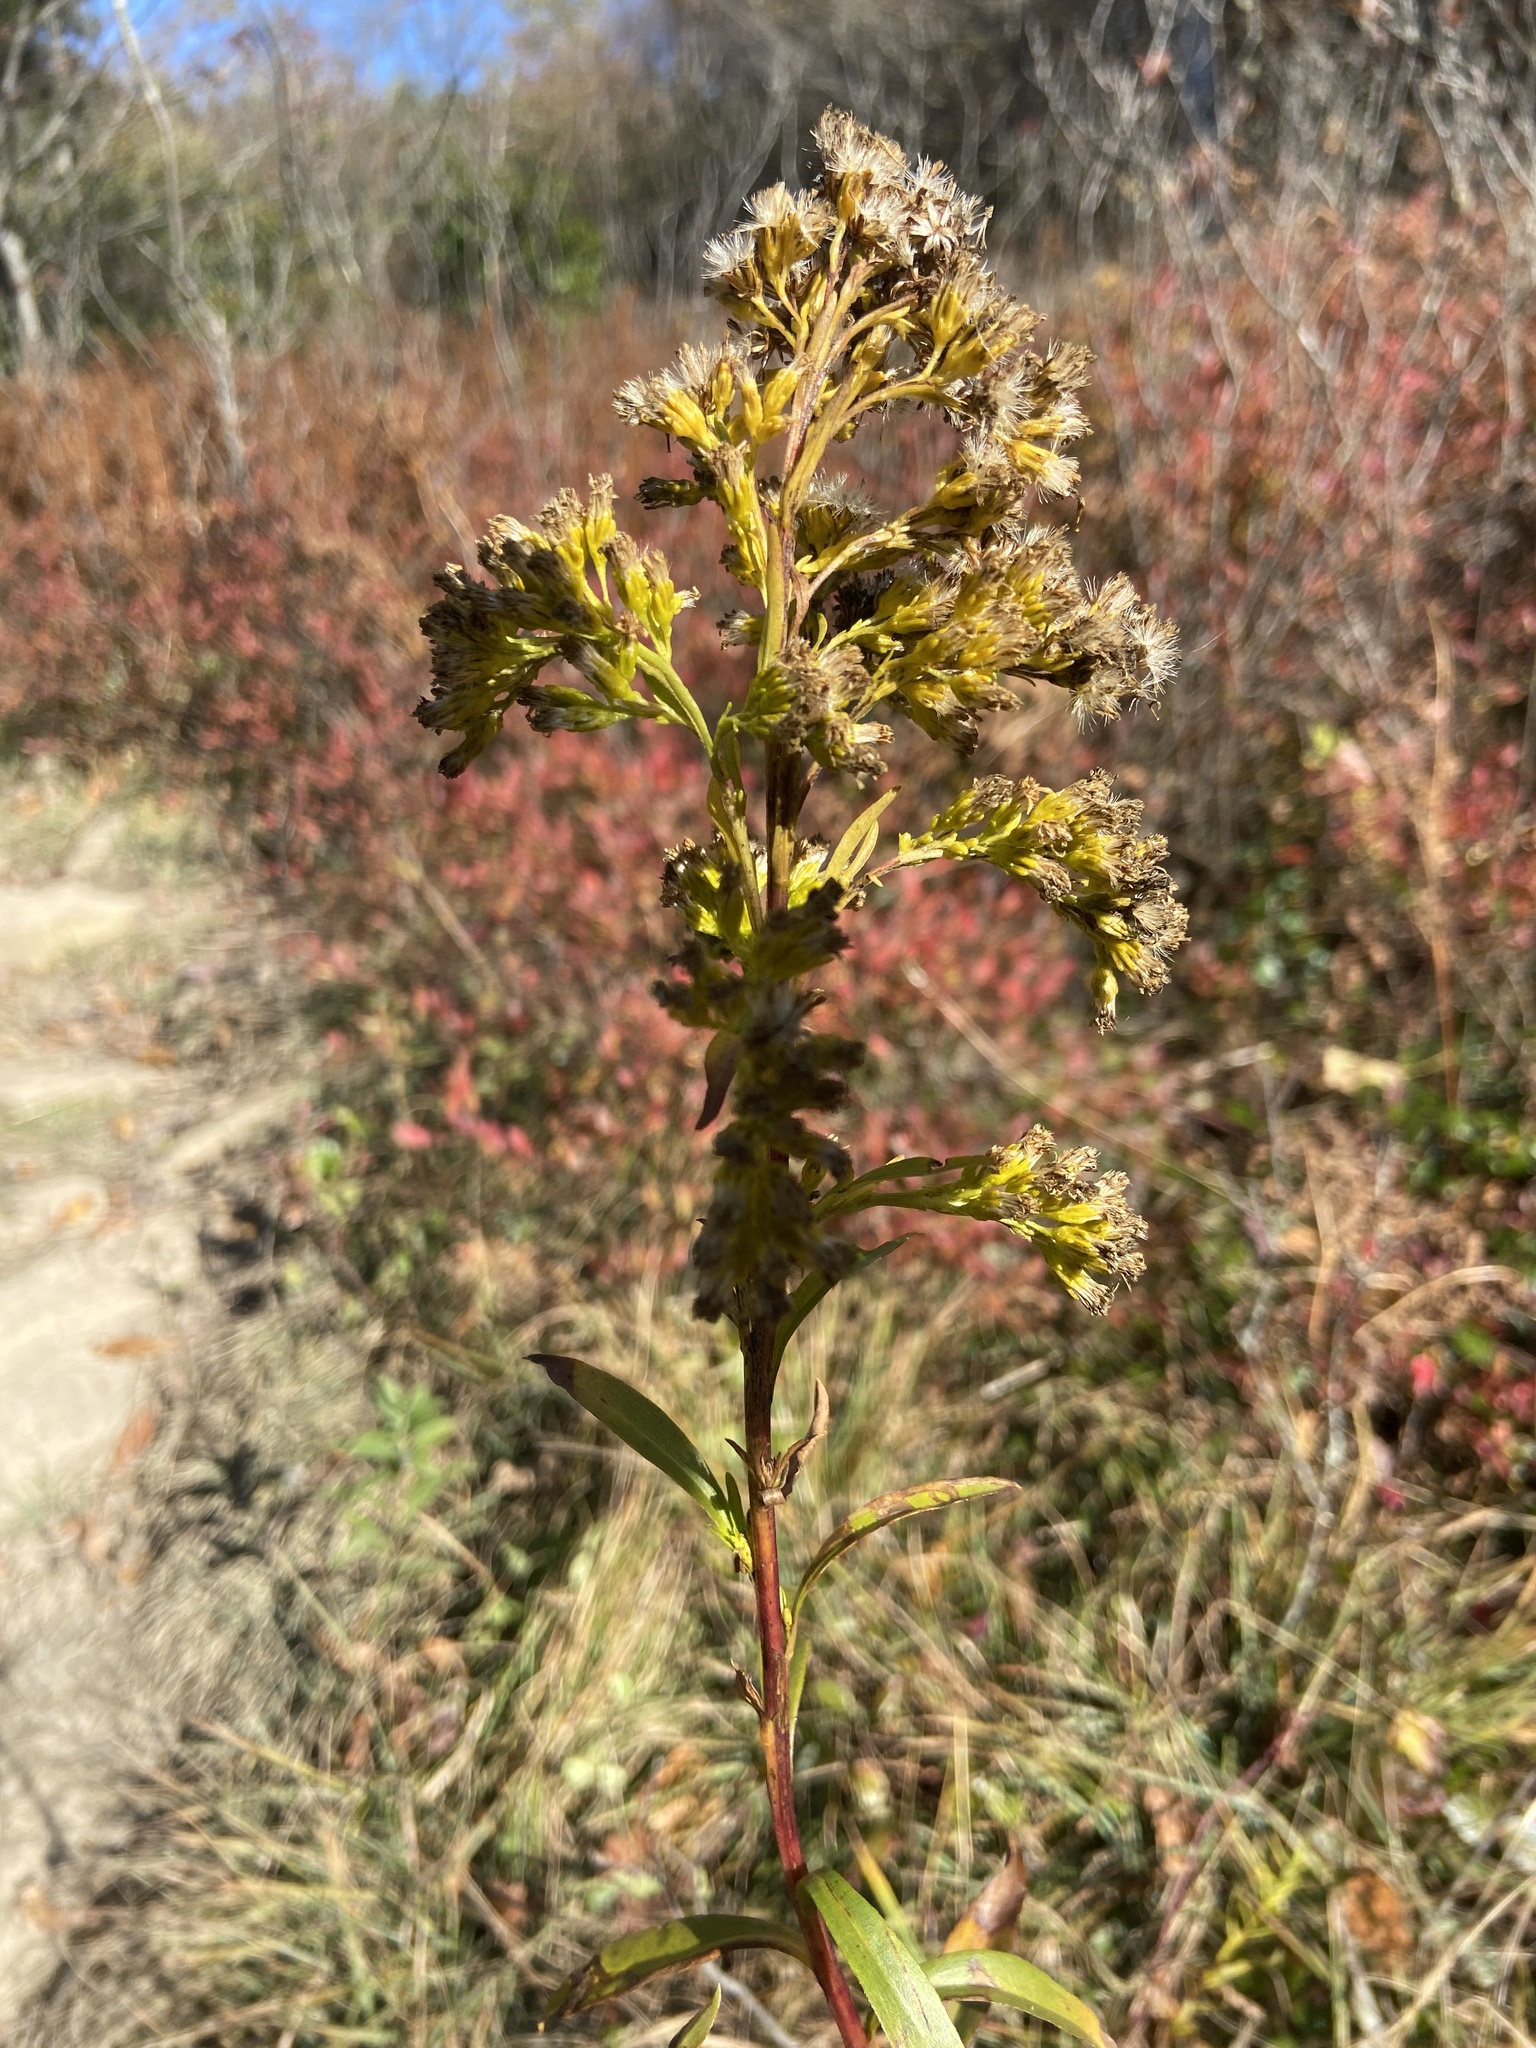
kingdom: Plantae
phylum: Tracheophyta
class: Magnoliopsida
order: Asterales
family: Asteraceae
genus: Solidago
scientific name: Solidago uliginosa
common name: Bog goldenrod
